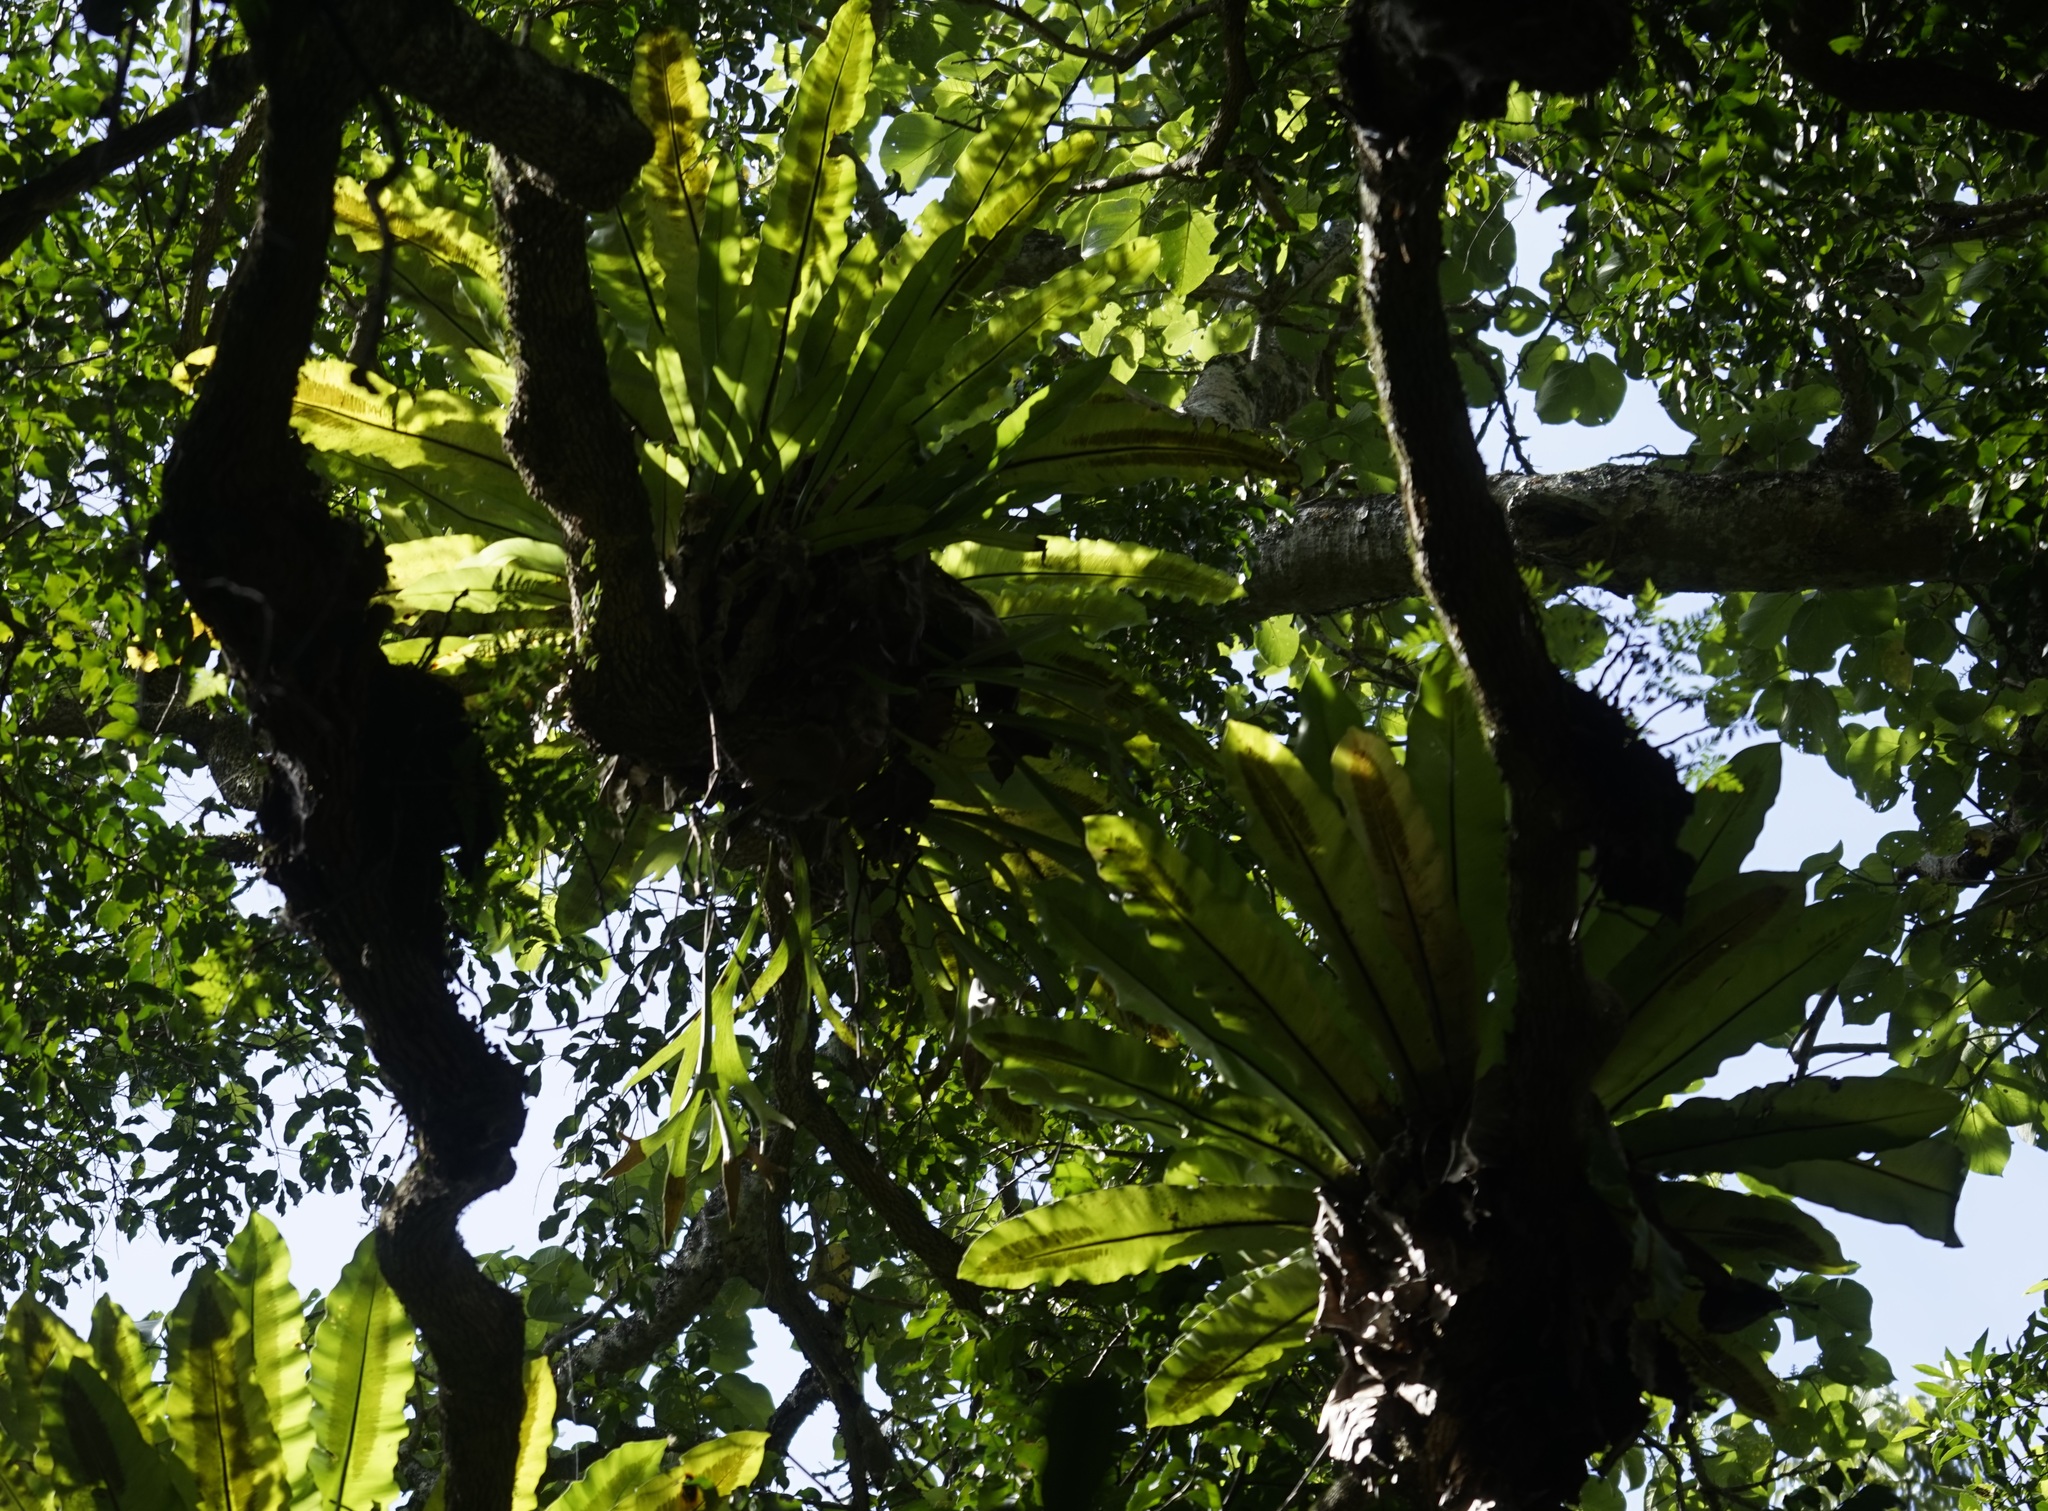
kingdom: Plantae
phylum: Tracheophyta
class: Polypodiopsida
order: Polypodiales
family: Aspleniaceae
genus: Asplenium
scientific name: Asplenium australasicum
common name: Bird's-nest fern
